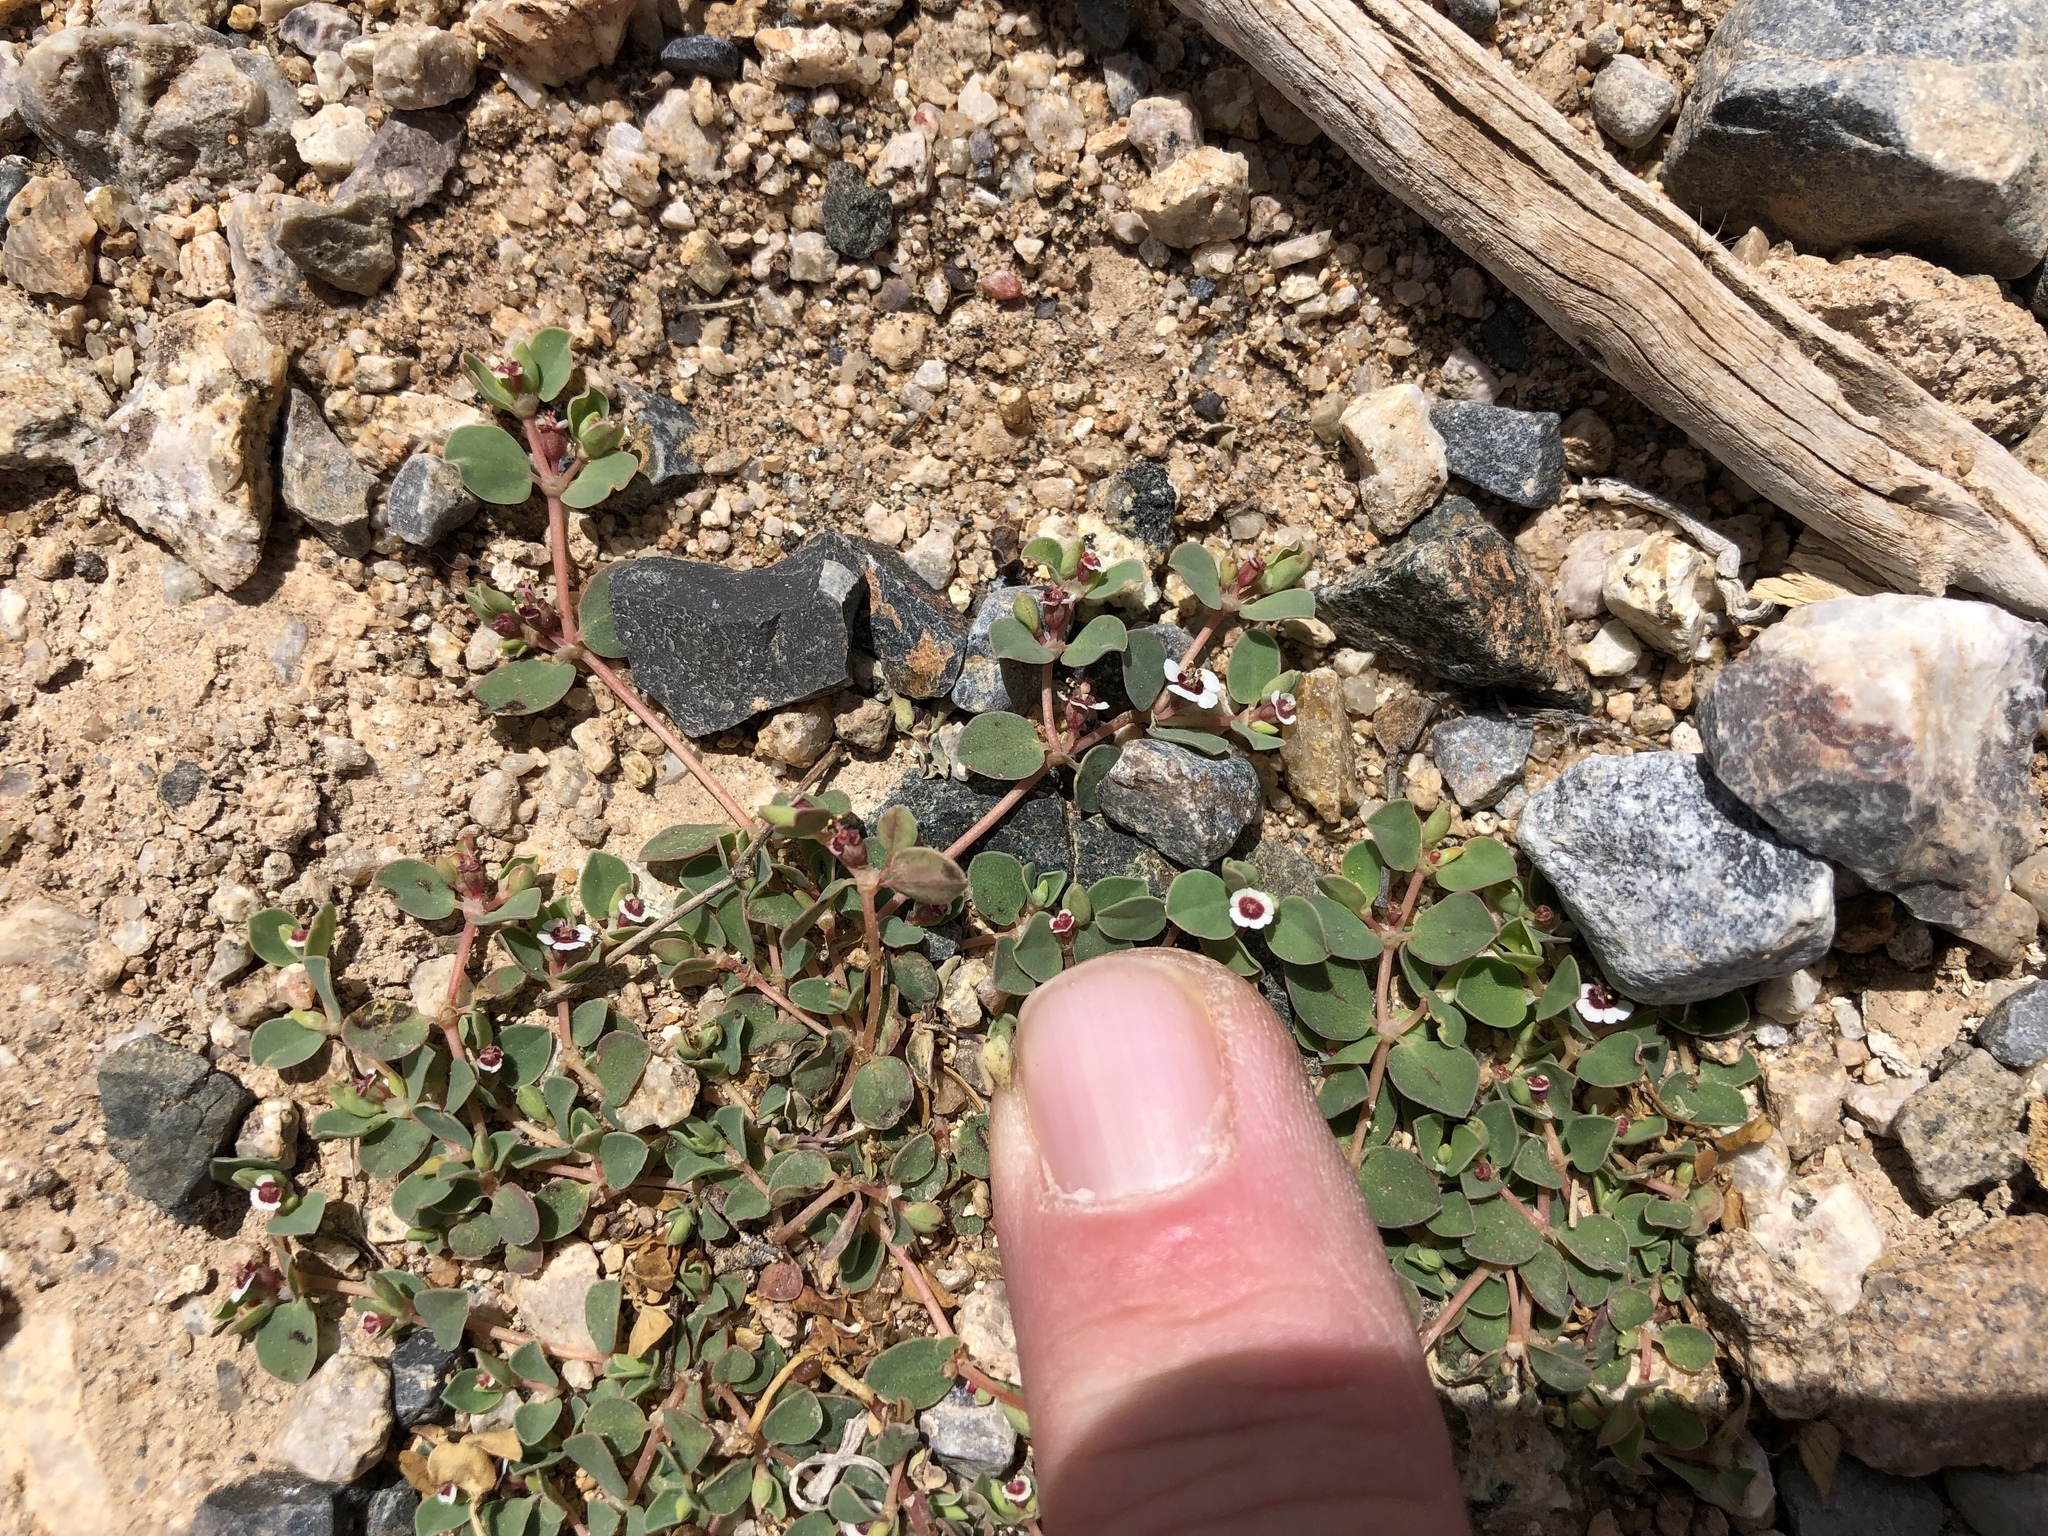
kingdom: Plantae
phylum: Tracheophyta
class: Magnoliopsida
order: Malpighiales
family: Euphorbiaceae
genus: Euphorbia
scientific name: Euphorbia albomarginata
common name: Whitemargin sandmat
